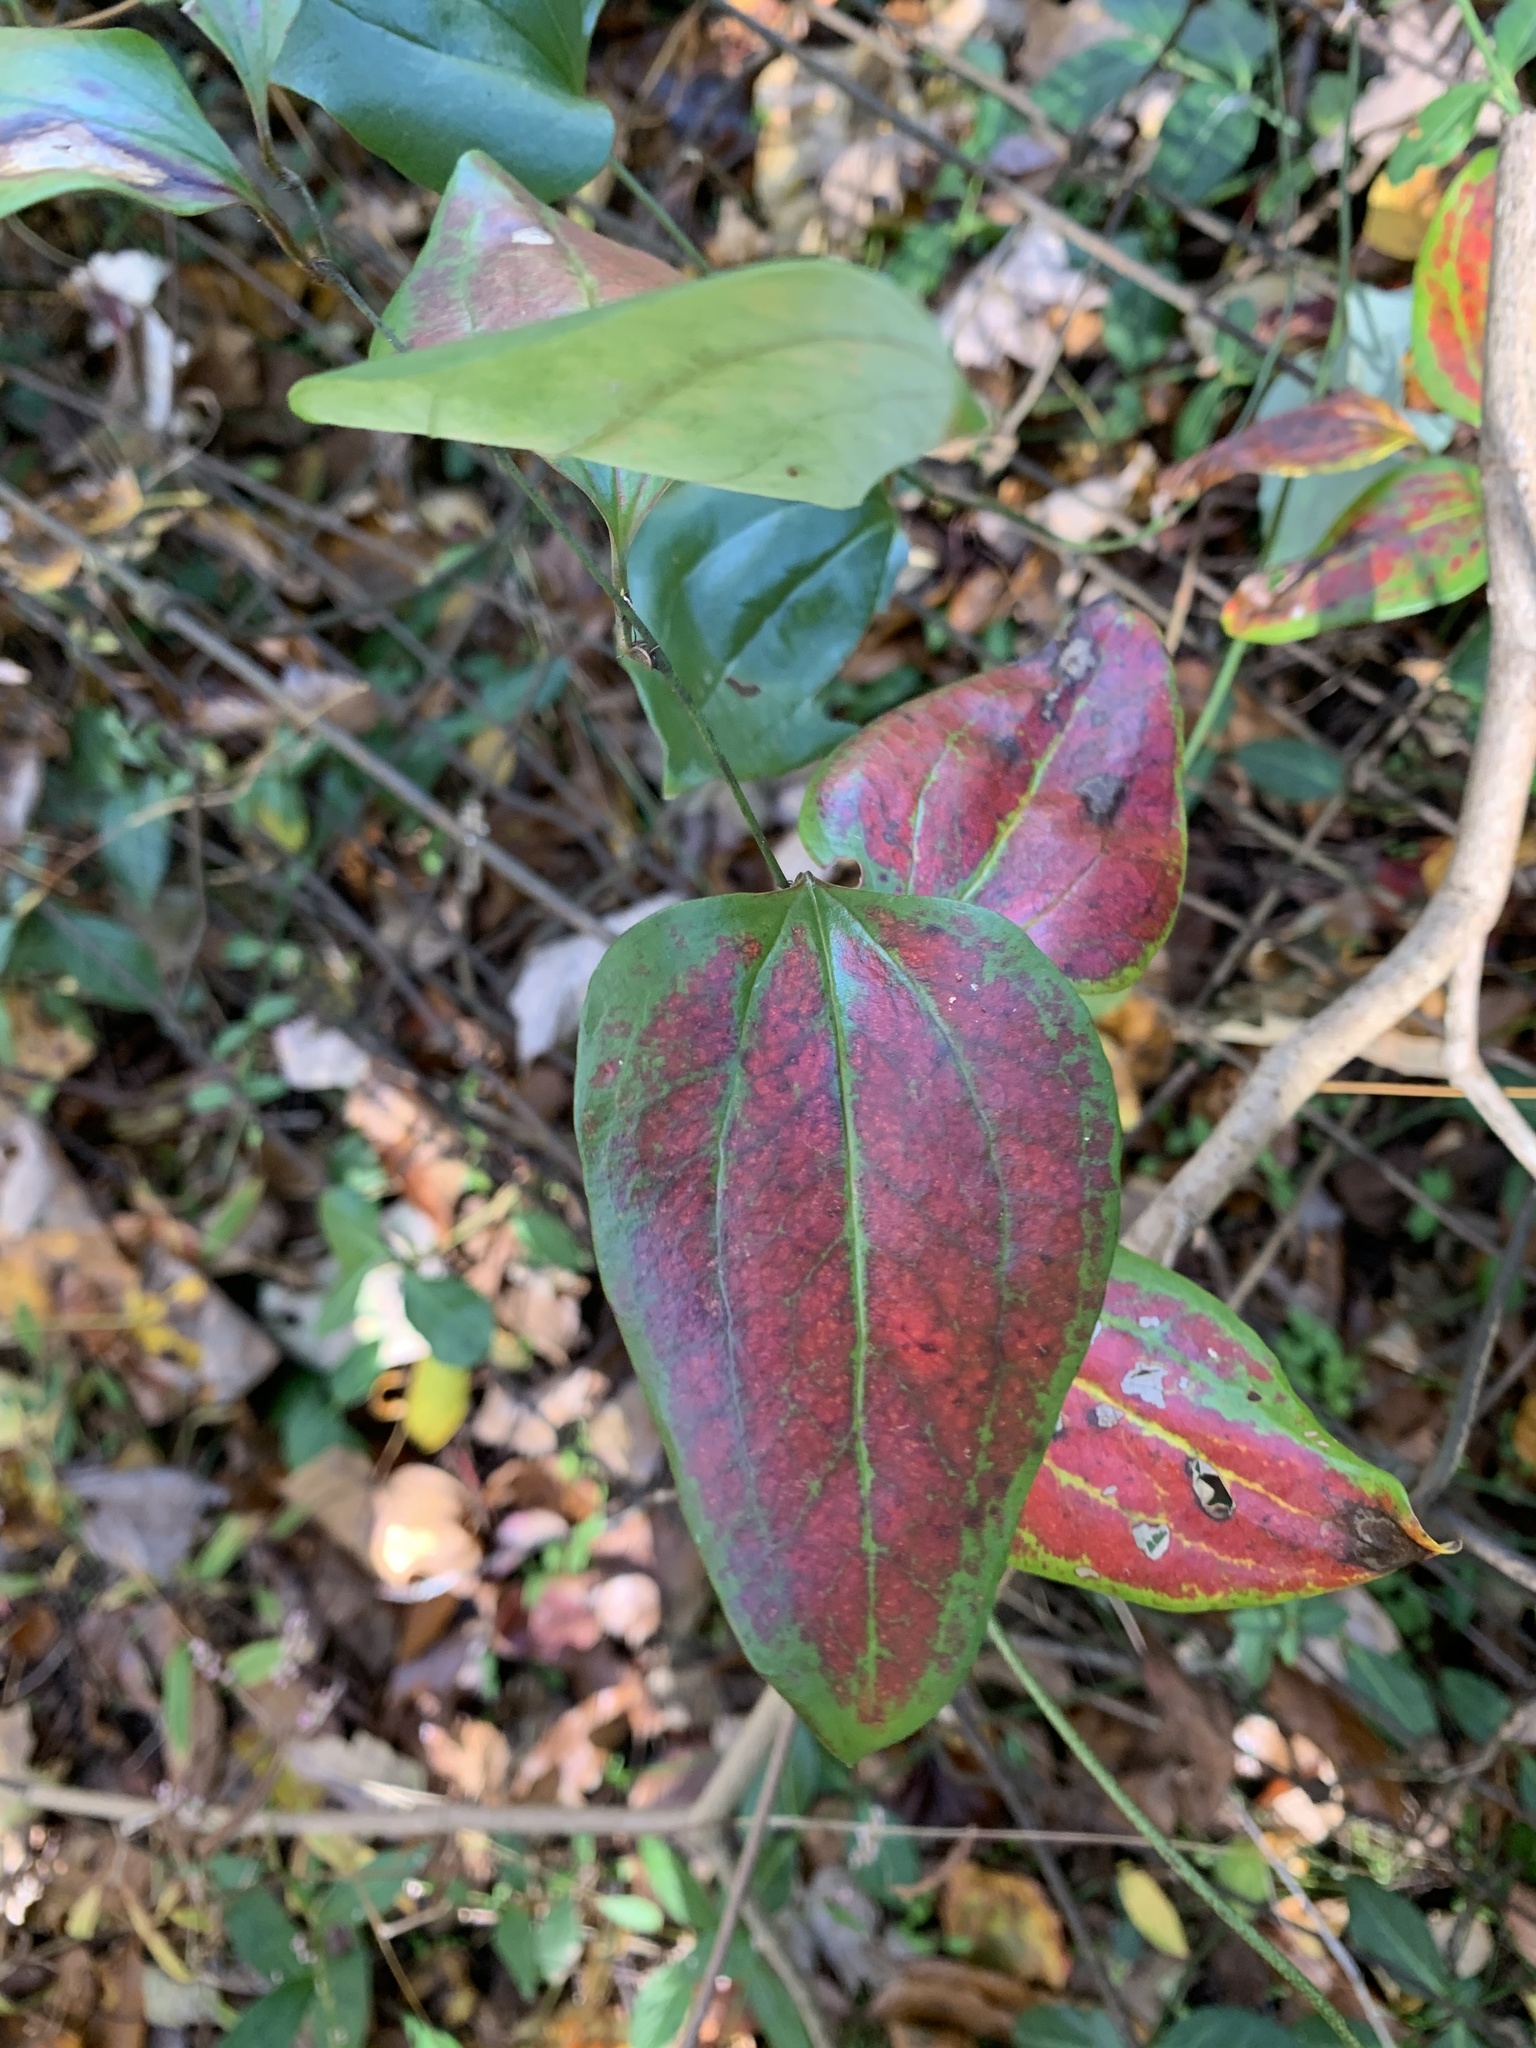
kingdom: Plantae
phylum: Tracheophyta
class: Liliopsida
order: Liliales
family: Smilacaceae
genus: Smilax
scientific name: Smilax glauca
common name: Cat greenbrier
